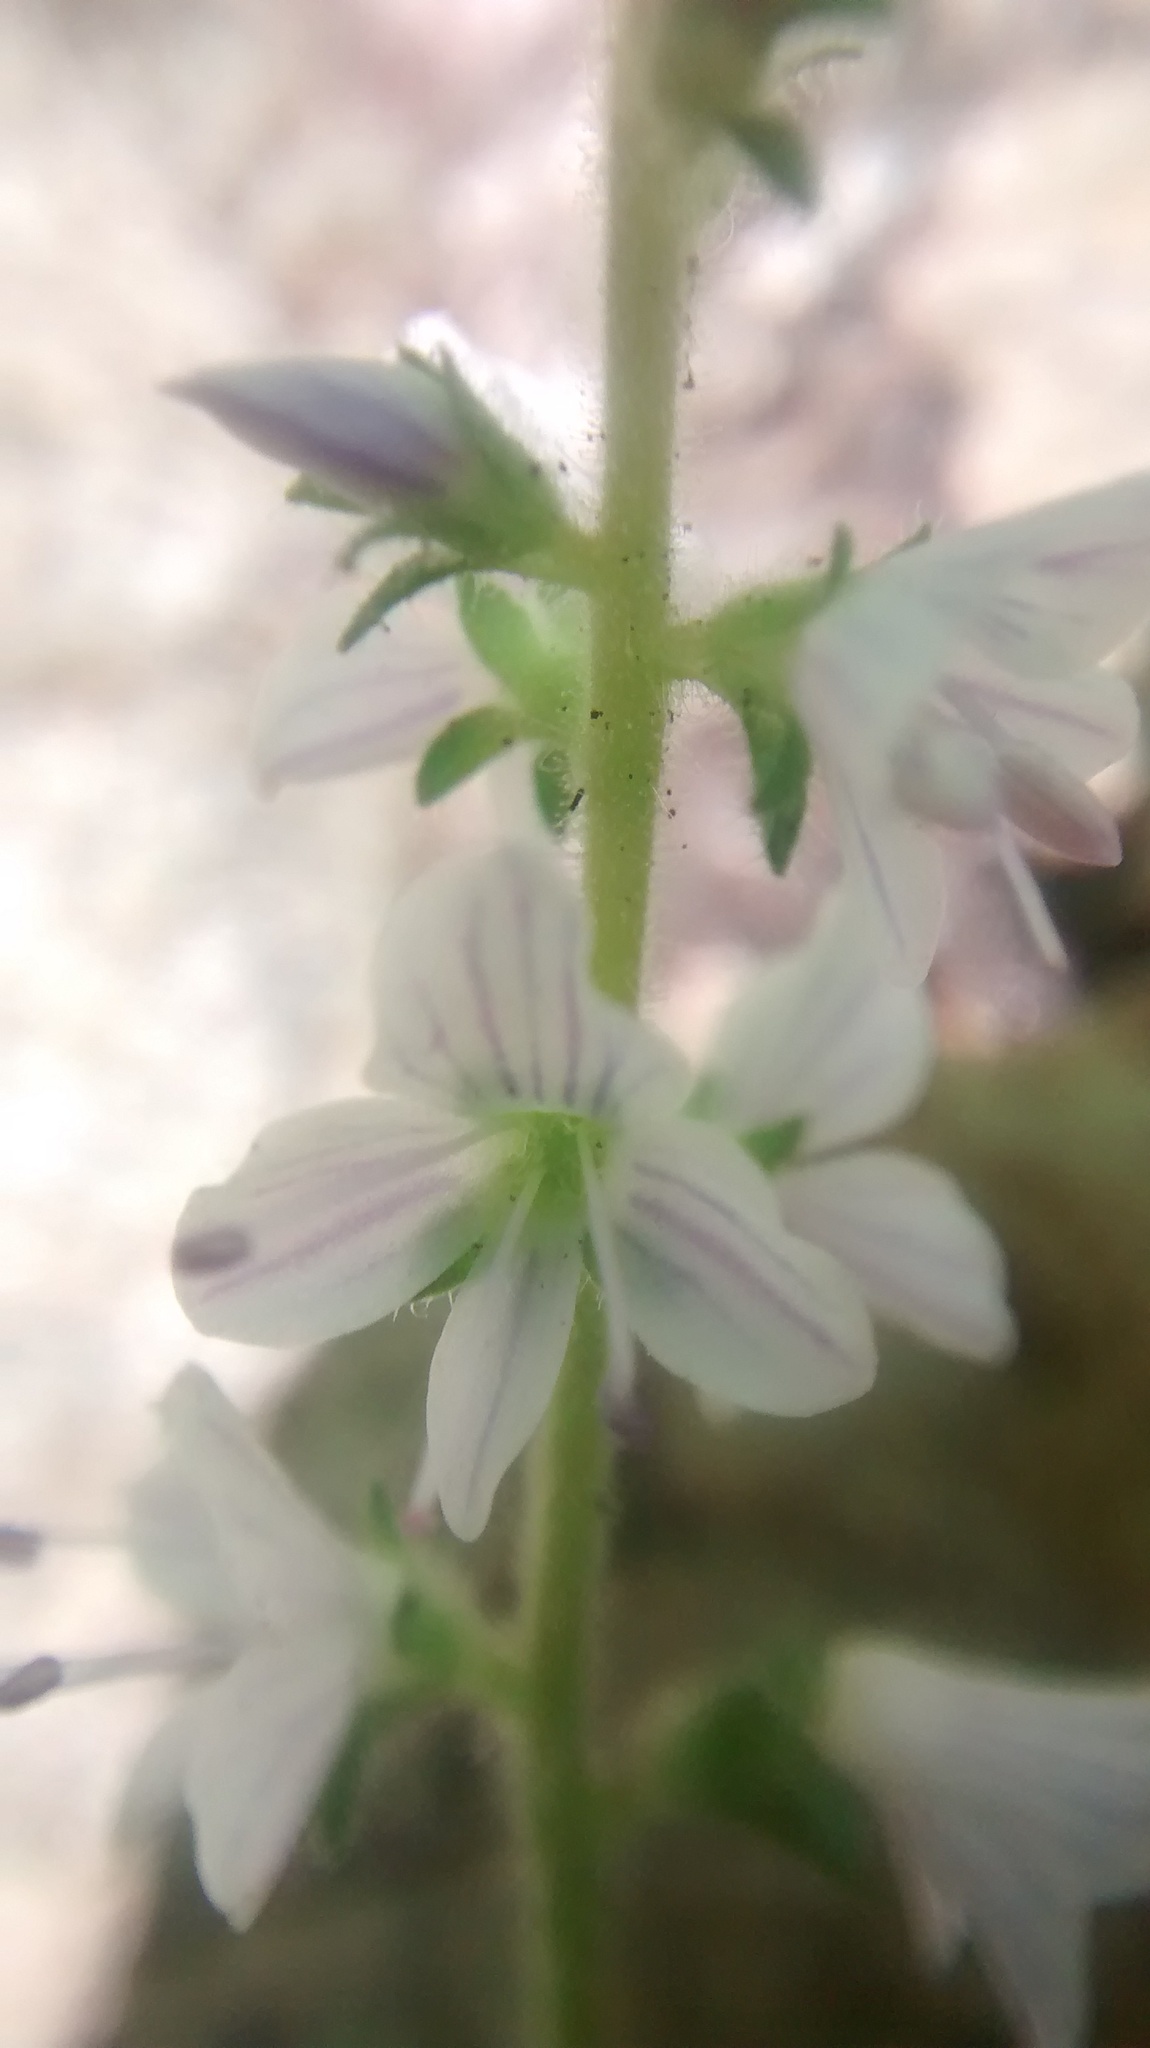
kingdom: Plantae
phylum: Tracheophyta
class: Magnoliopsida
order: Lamiales
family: Plantaginaceae
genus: Veronica
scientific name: Veronica officinalis
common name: Common speedwell
